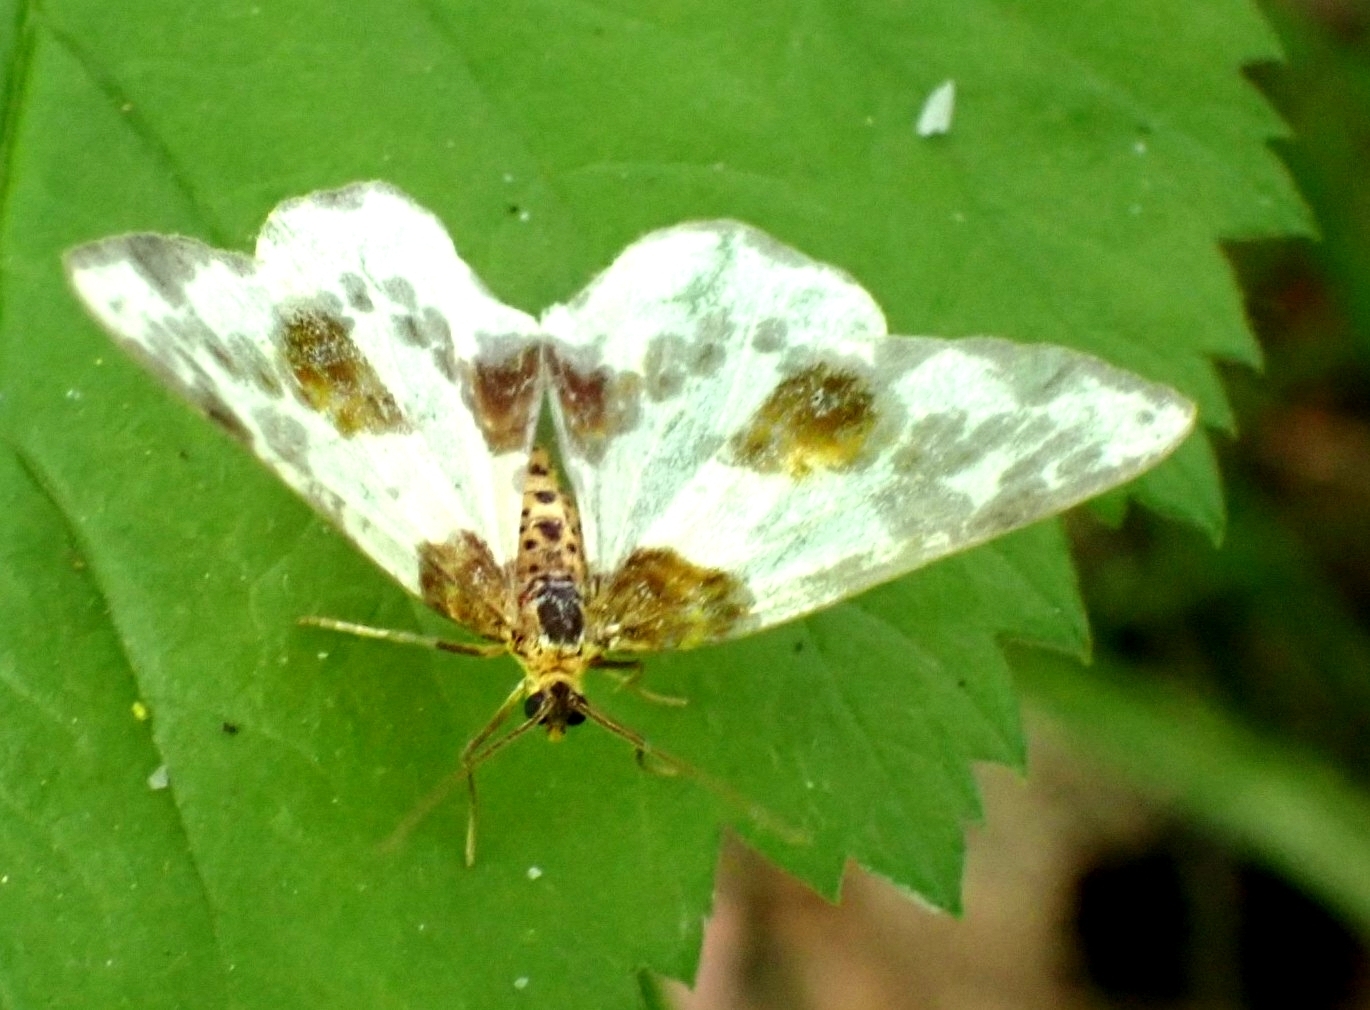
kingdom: Animalia
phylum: Arthropoda
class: Insecta
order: Lepidoptera
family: Geometridae
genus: Abraxas
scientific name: Abraxas sylvata
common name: Clouded magpie
